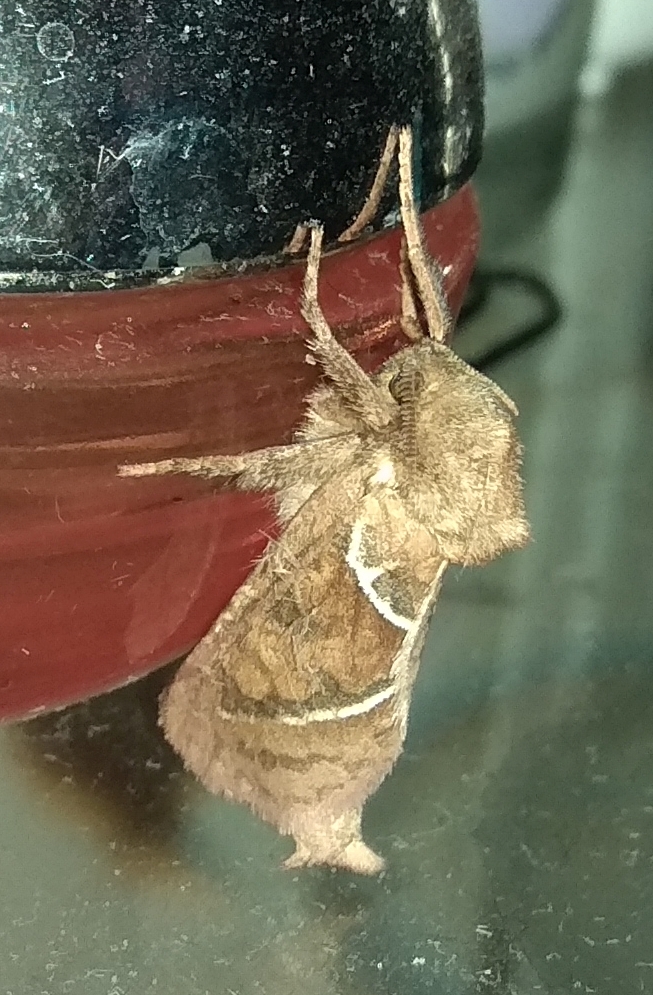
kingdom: Animalia
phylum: Arthropoda
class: Insecta
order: Lepidoptera
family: Hepialidae
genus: Triodia
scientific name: Triodia sylvina
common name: Orange swift
